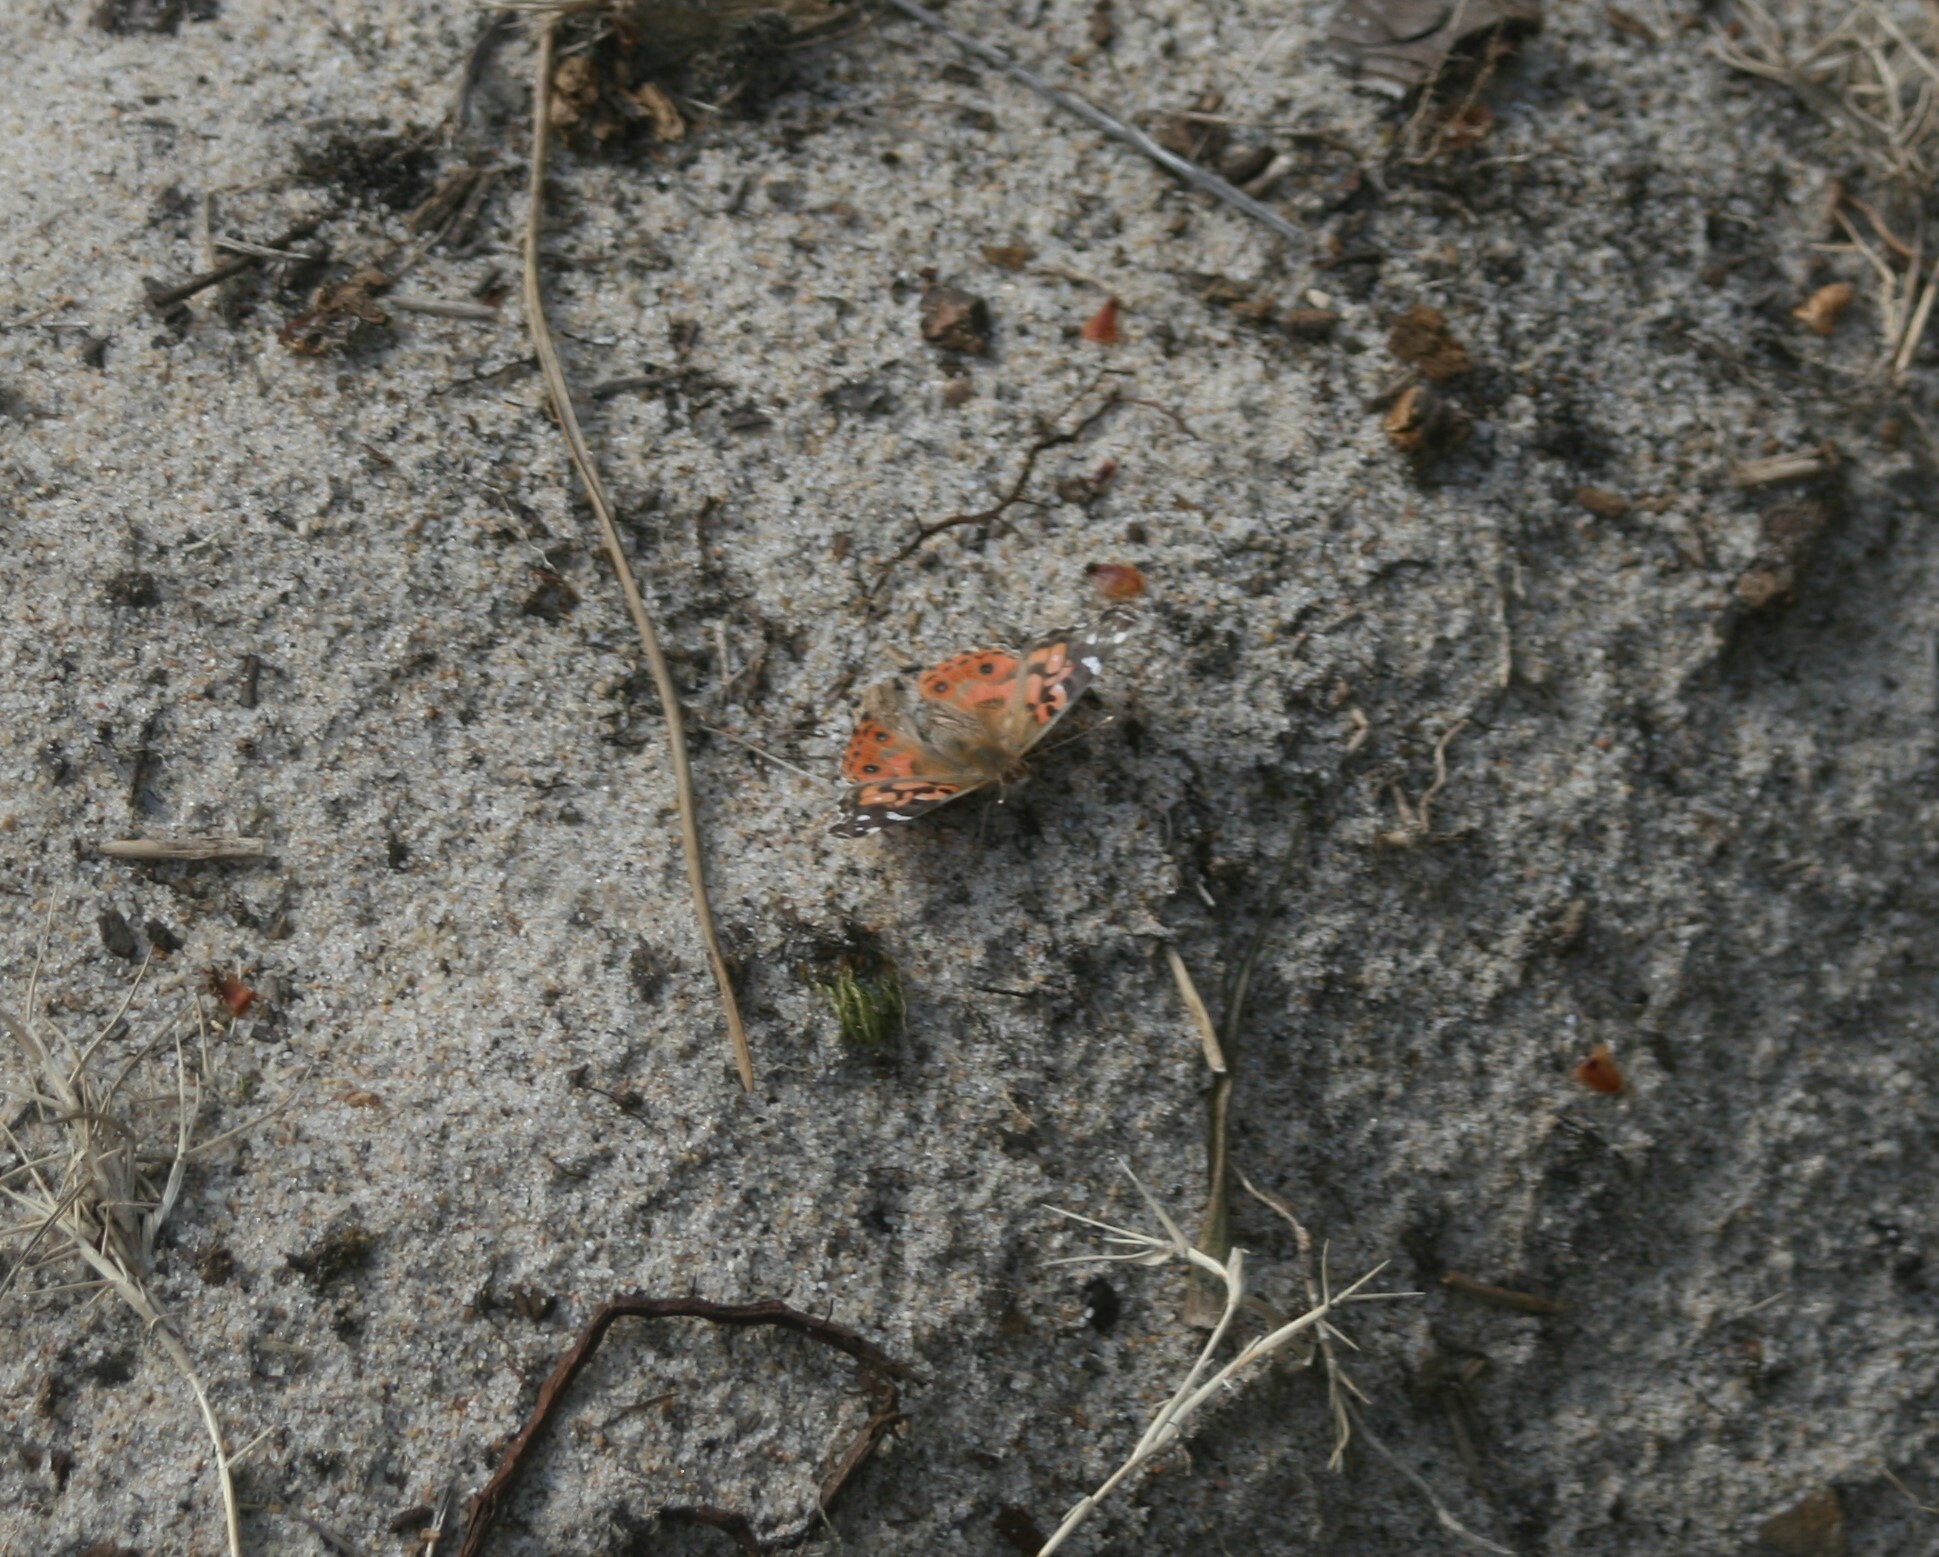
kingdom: Animalia
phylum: Arthropoda
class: Insecta
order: Lepidoptera
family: Nymphalidae
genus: Vanessa
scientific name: Vanessa braziliensis
